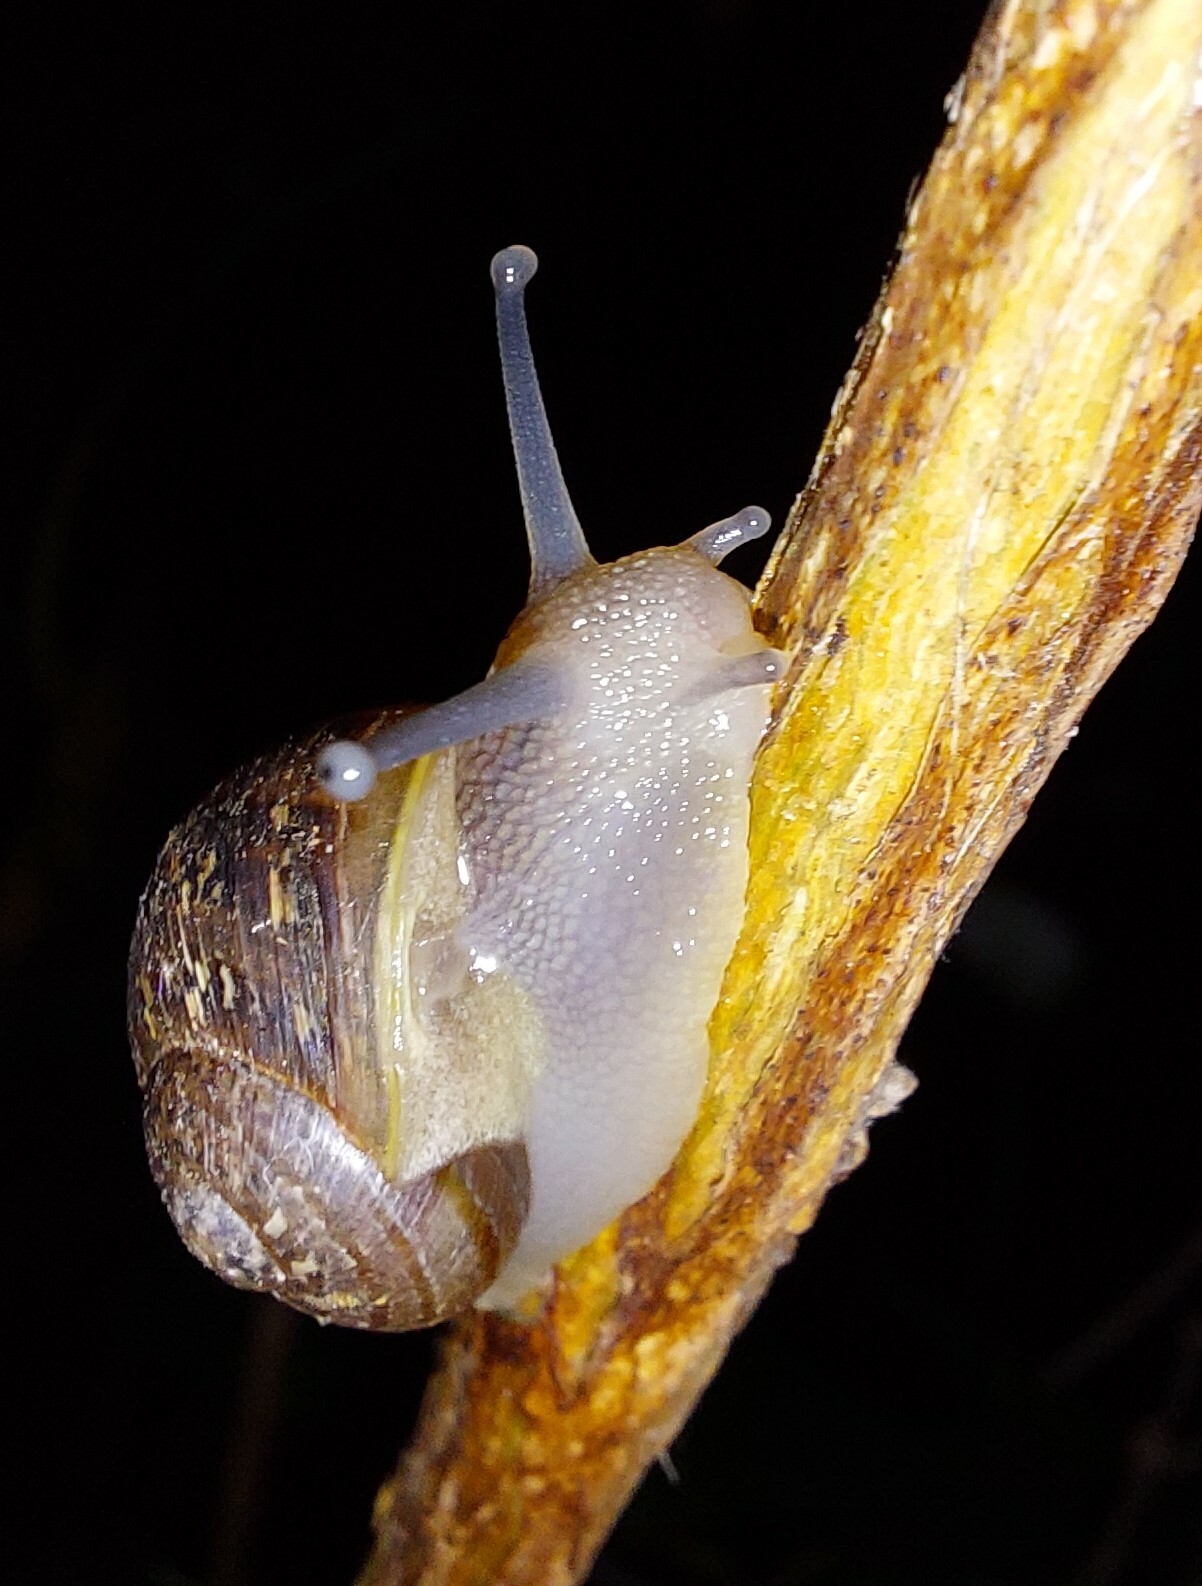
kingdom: Animalia
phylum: Mollusca
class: Gastropoda
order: Stylommatophora
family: Helicidae
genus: Cornu
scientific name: Cornu aspersum
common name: Brown garden snail
